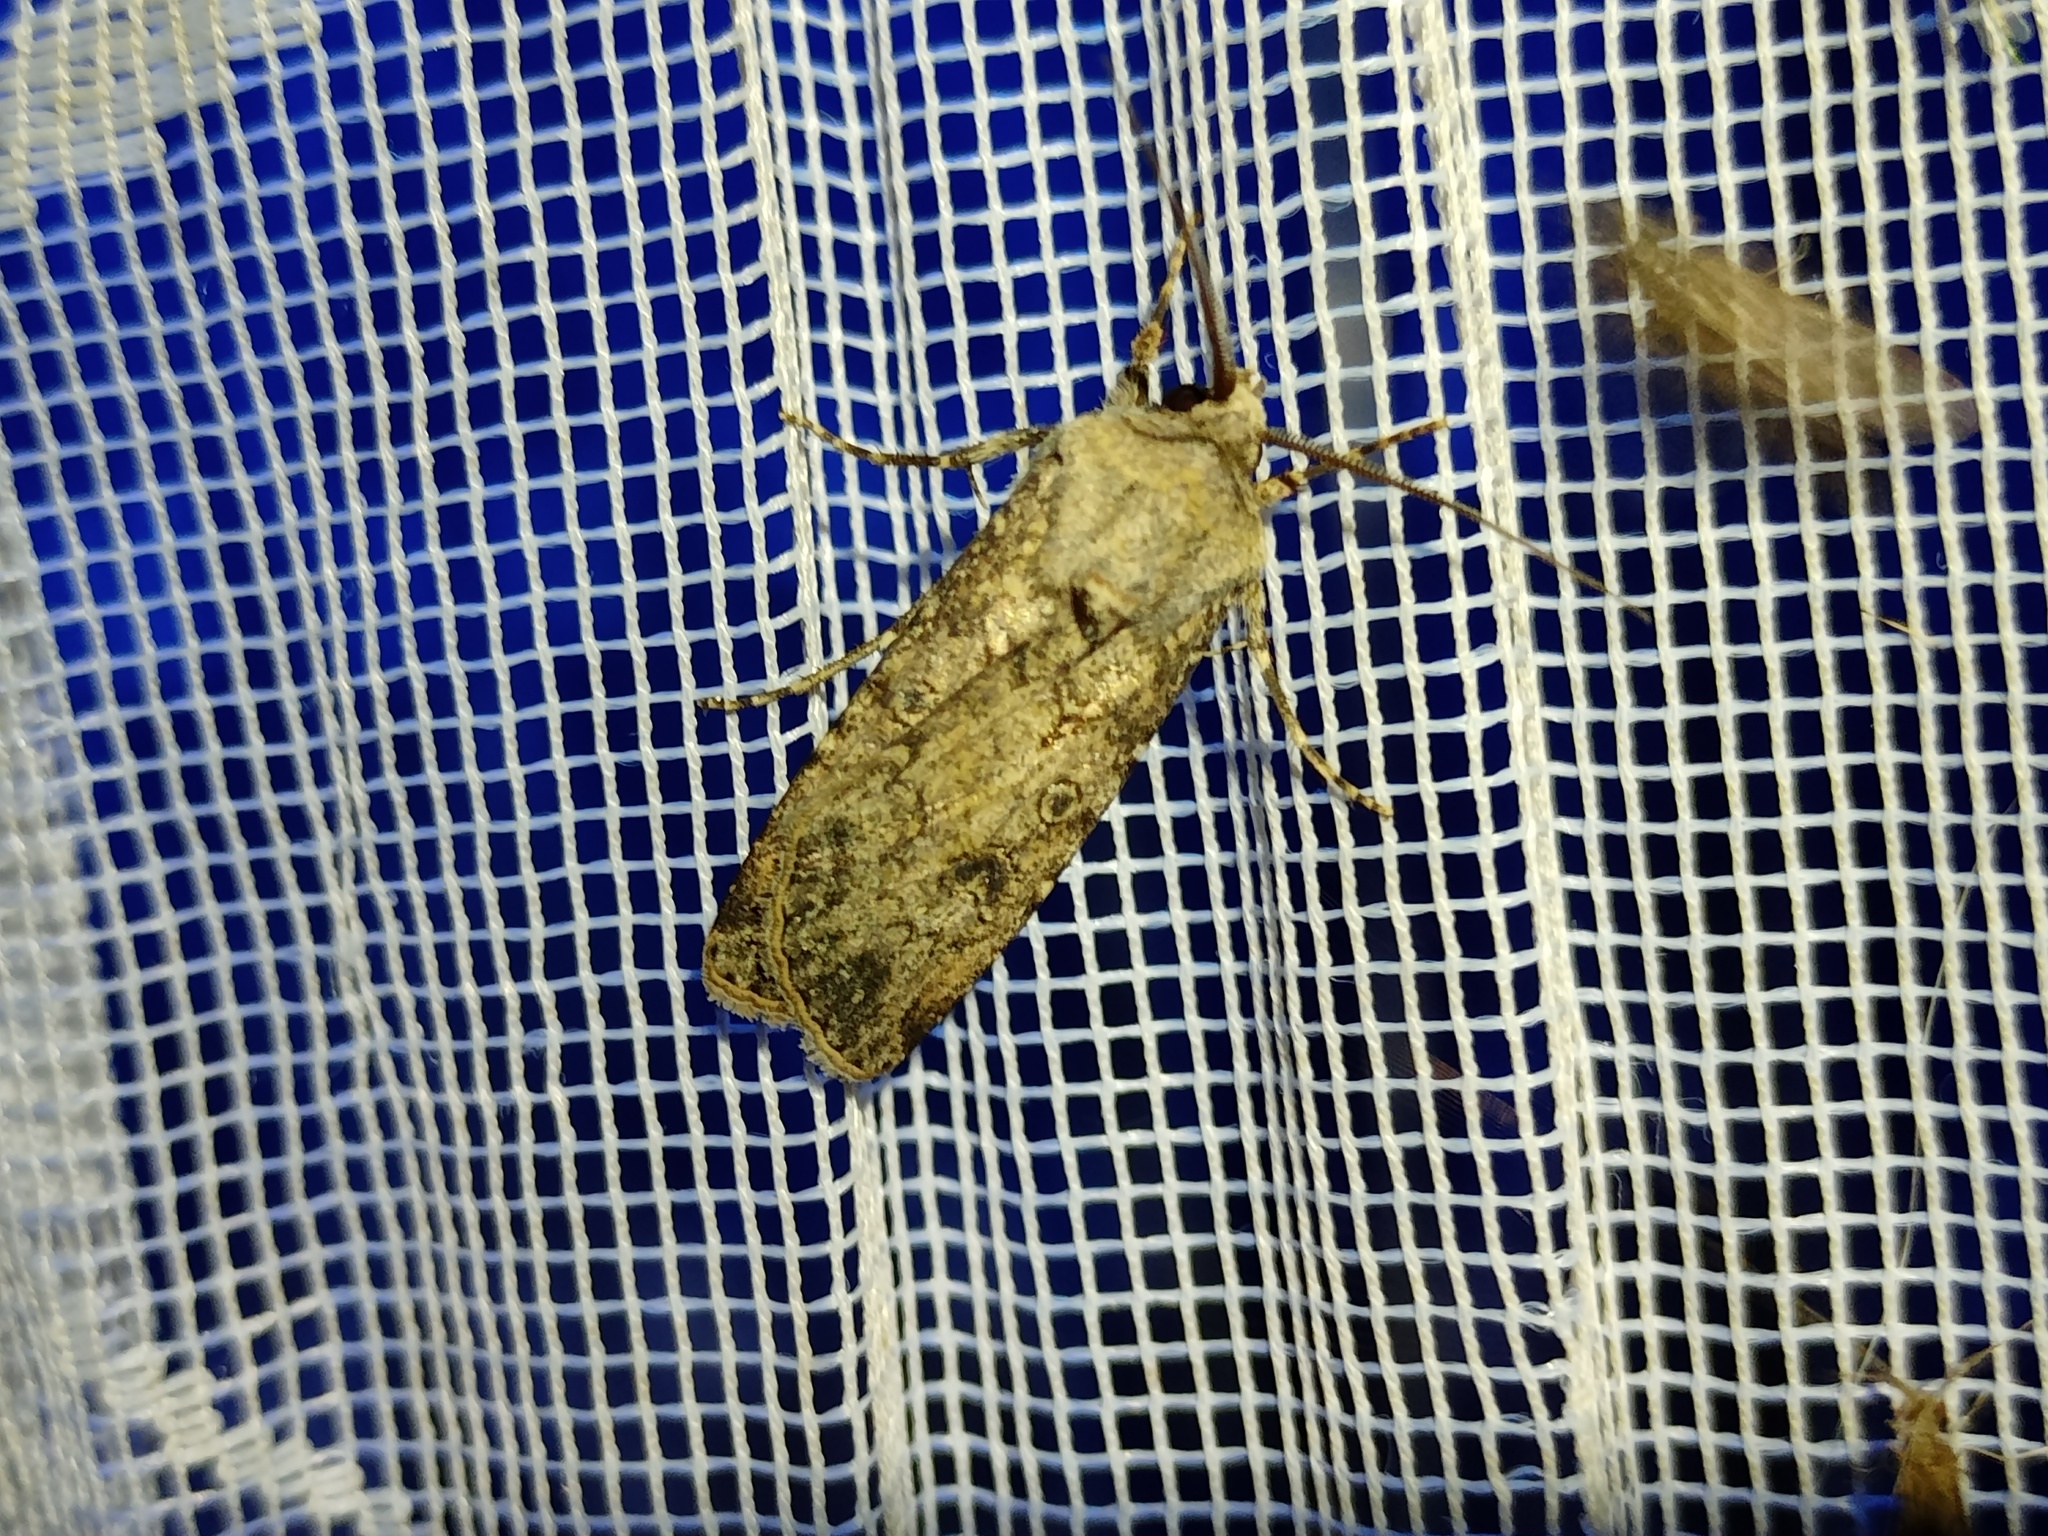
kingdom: Animalia
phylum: Arthropoda
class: Insecta
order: Lepidoptera
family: Noctuidae
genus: Agrotis
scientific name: Agrotis segetum
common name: Turnip moth
